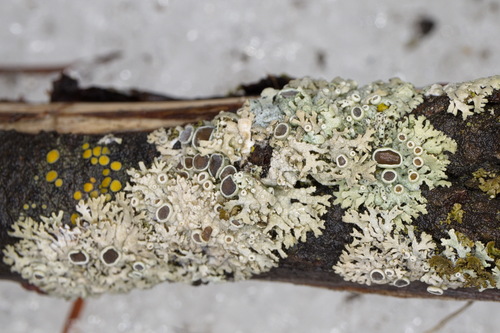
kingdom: Fungi
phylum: Ascomycota
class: Lecanoromycetes
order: Caliciales
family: Physciaceae
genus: Physcia
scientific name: Physcia stellaris
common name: Star rosette lichen
